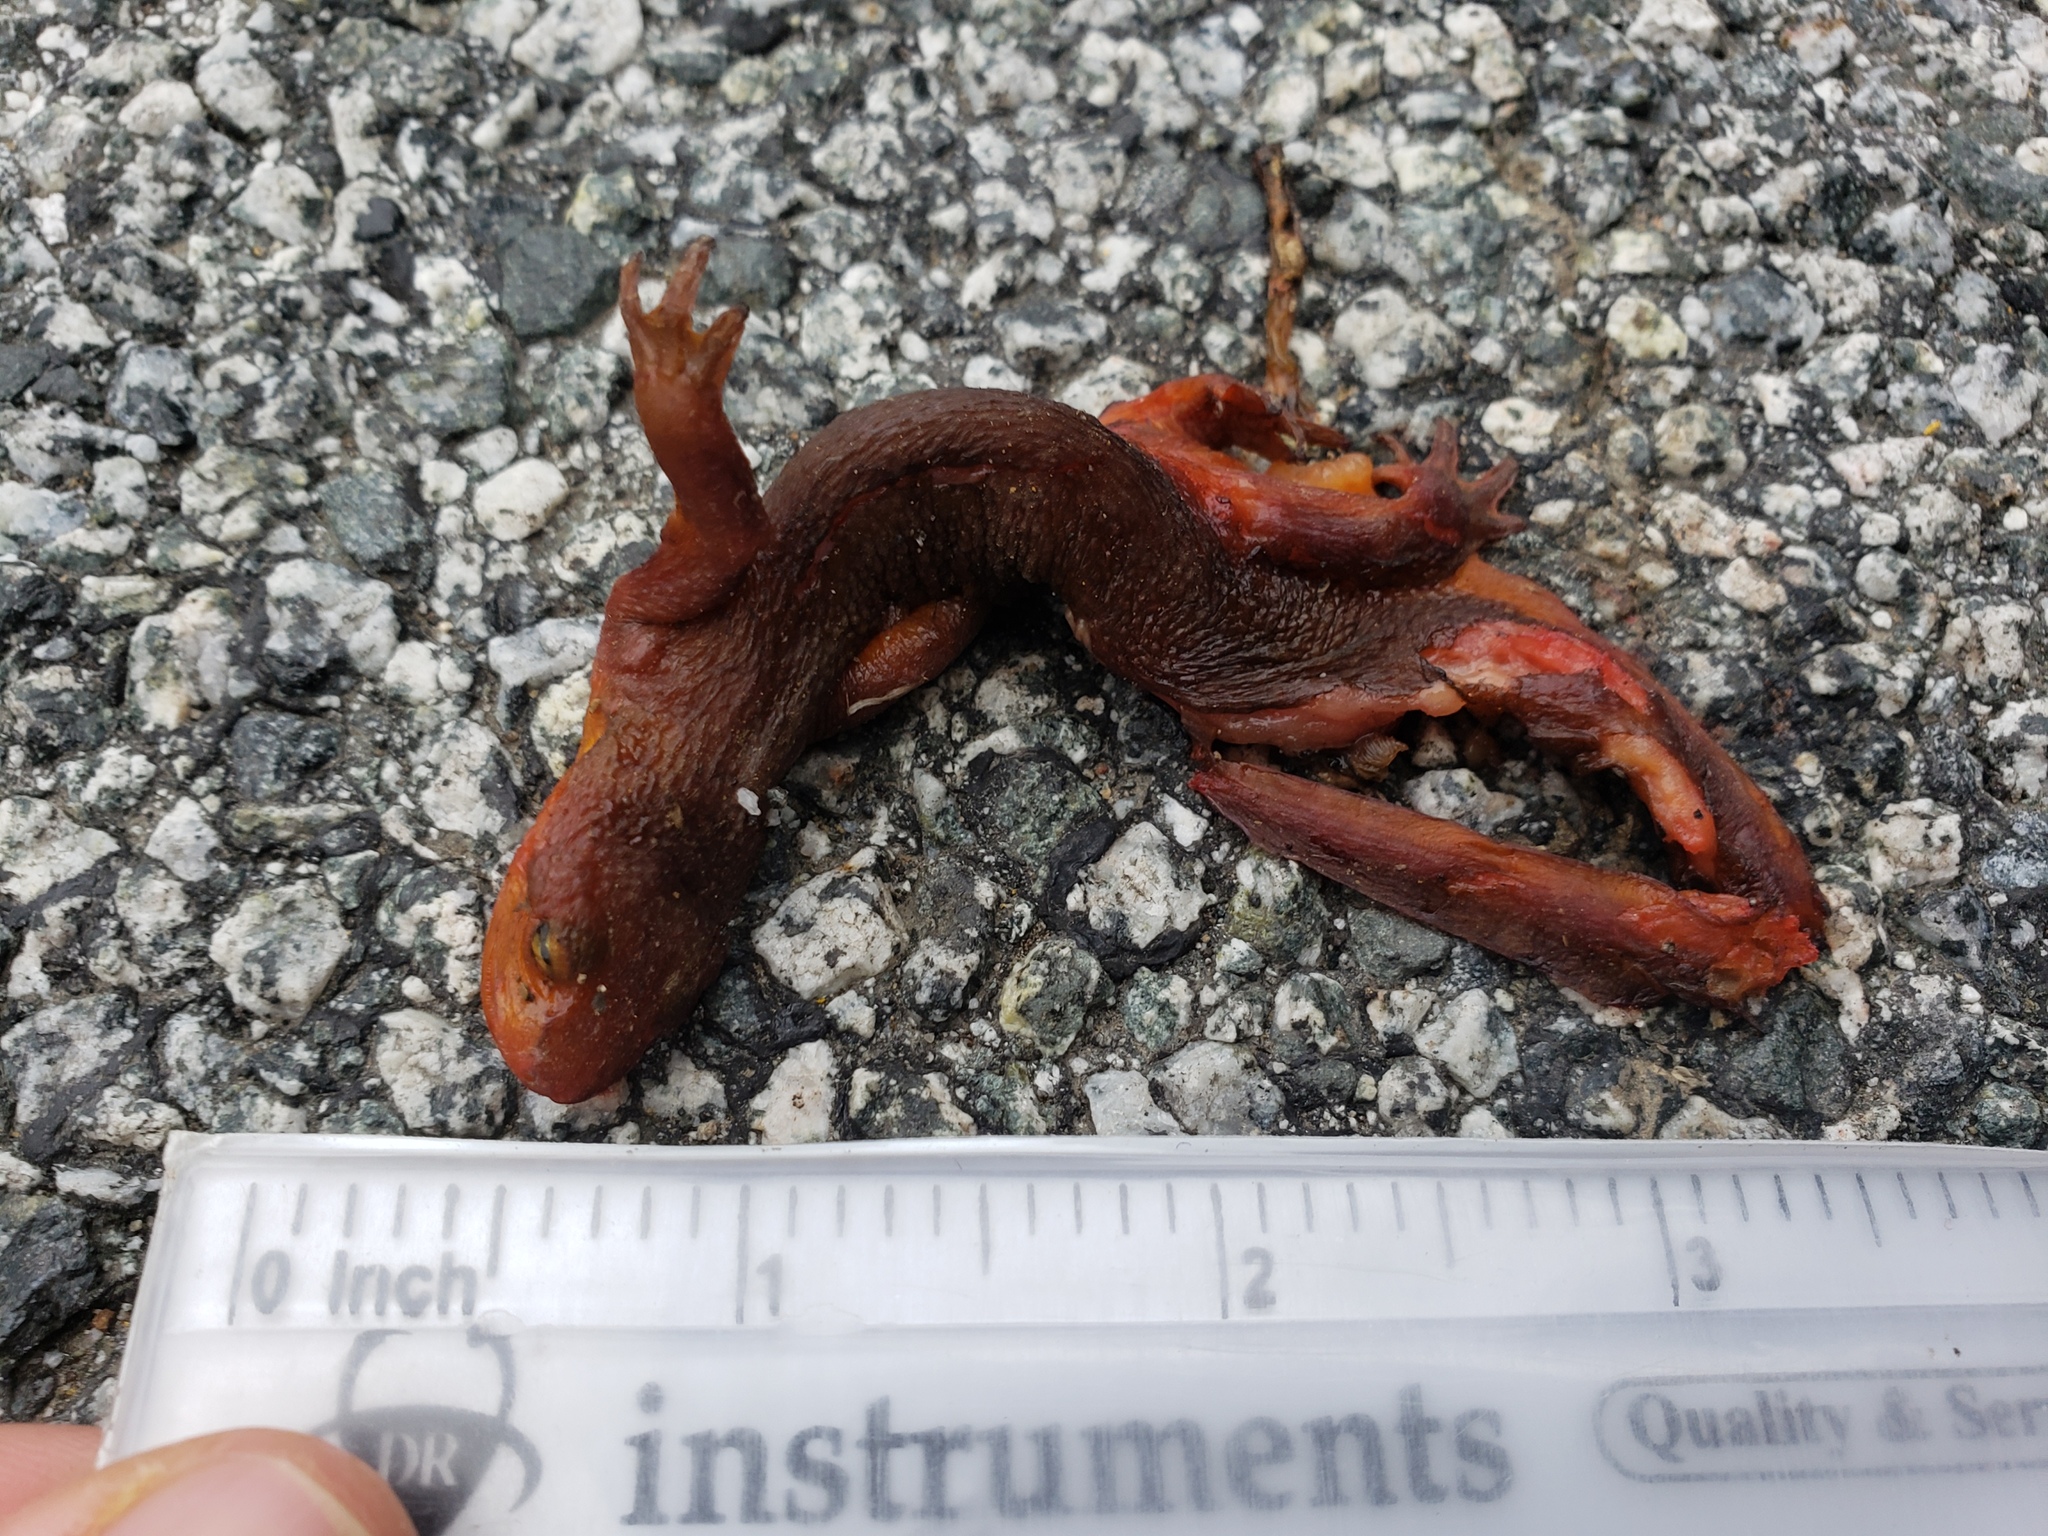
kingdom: Animalia
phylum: Chordata
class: Amphibia
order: Caudata
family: Salamandridae
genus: Taricha
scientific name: Taricha
